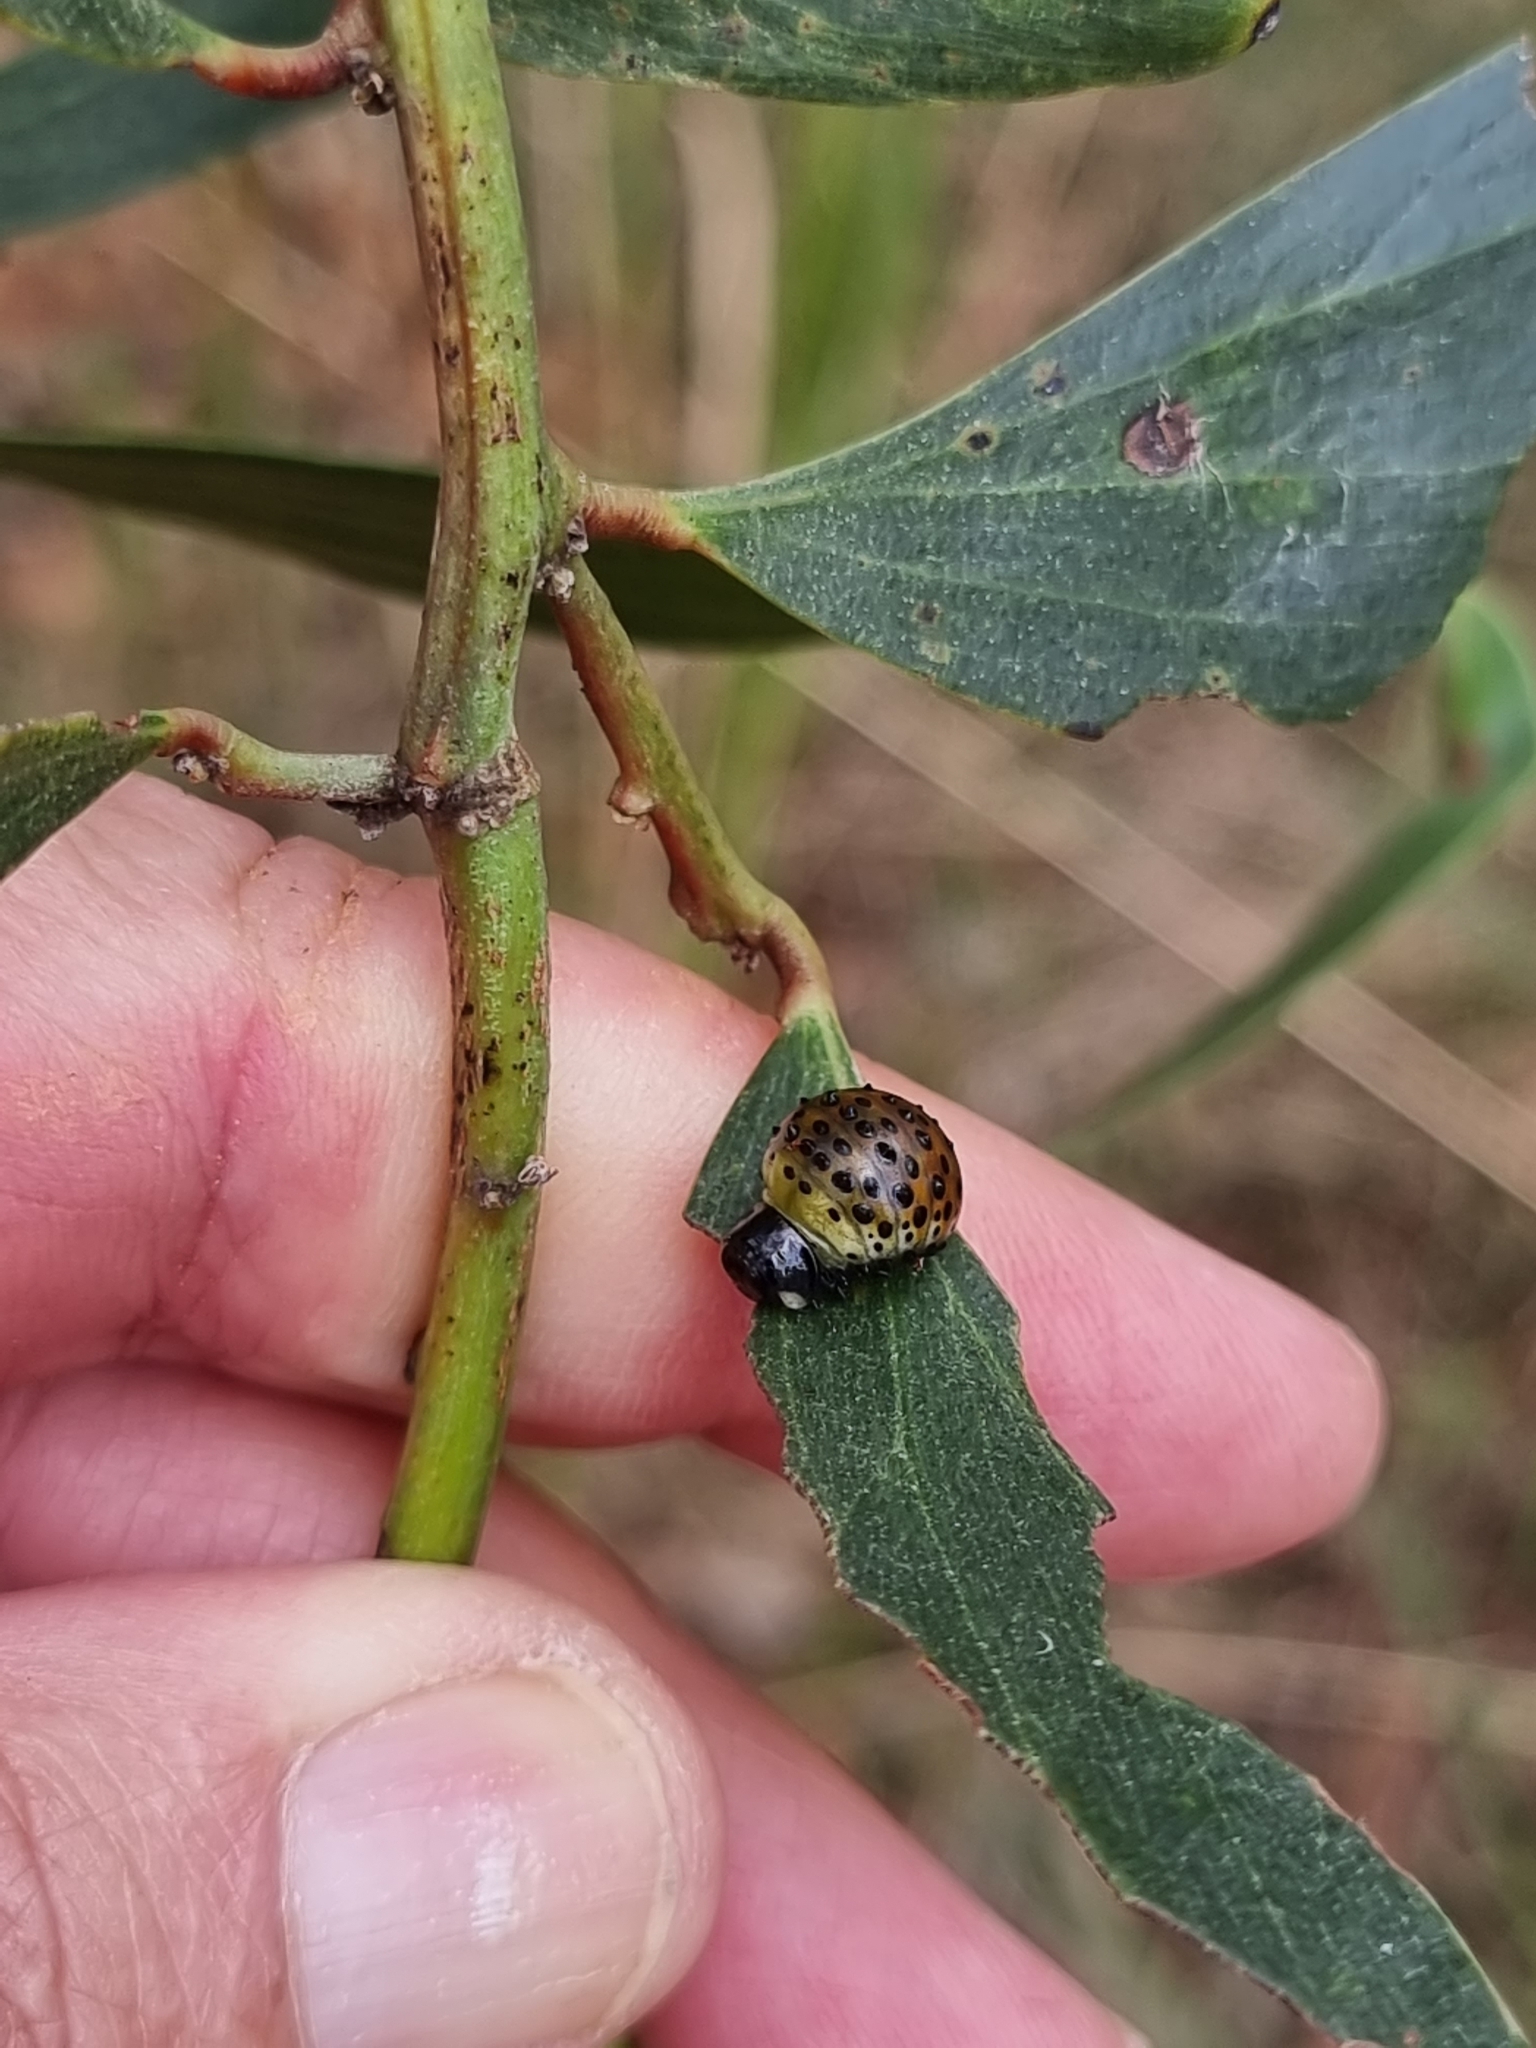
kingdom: Animalia
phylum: Arthropoda
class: Insecta
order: Coleoptera
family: Chrysomelidae
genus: Dicranosterna
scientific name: Dicranosterna
